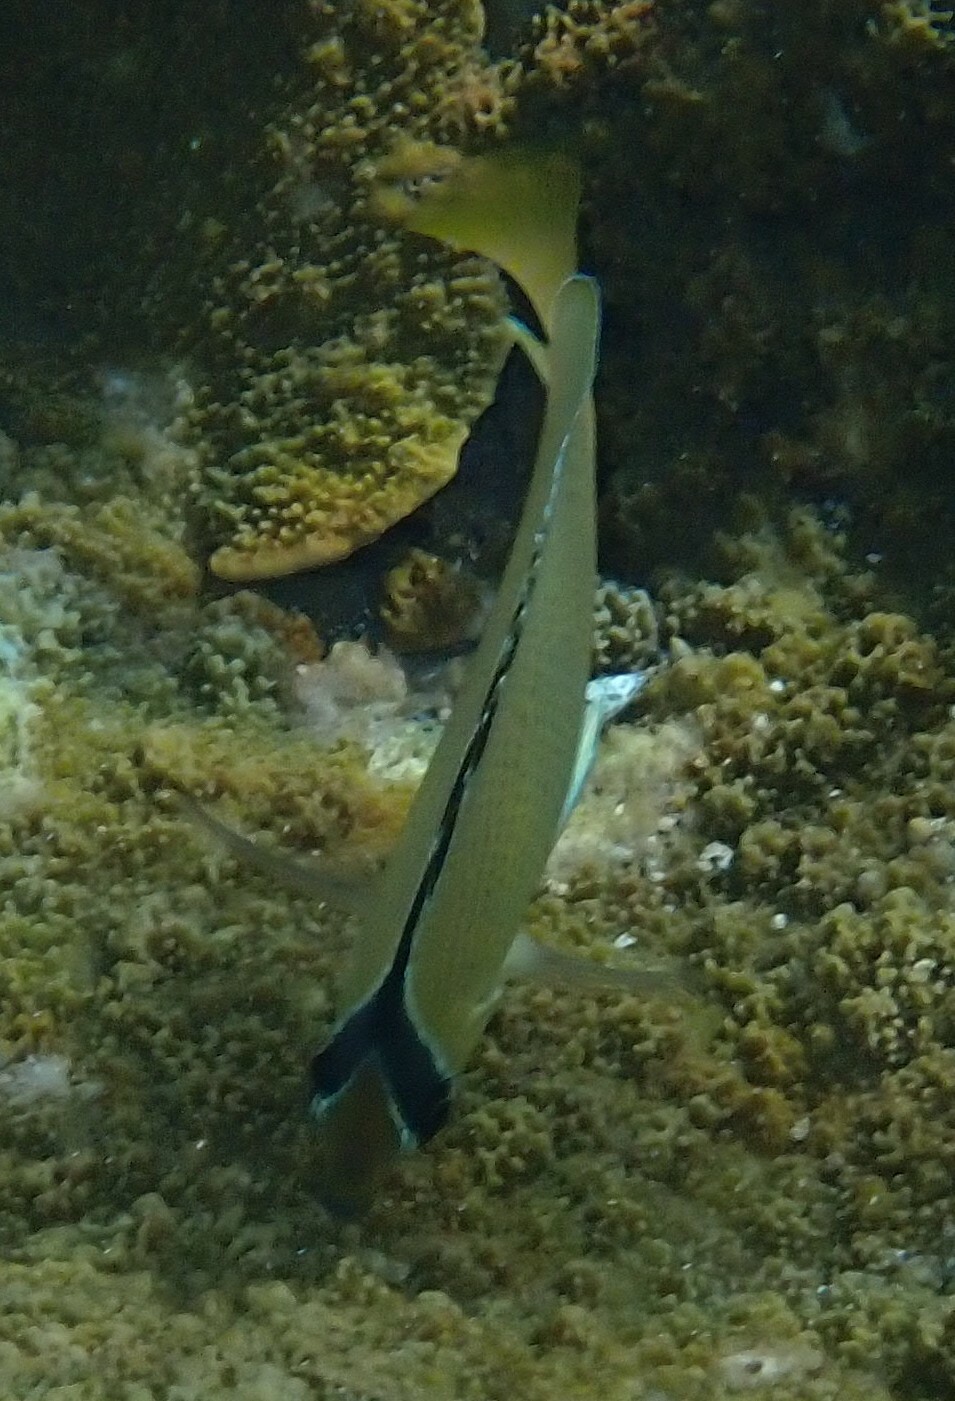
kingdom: Animalia
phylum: Chordata
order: Perciformes
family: Chaetodontidae
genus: Chaetodon
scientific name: Chaetodon citrinellus
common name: Speckled butterflyfish
